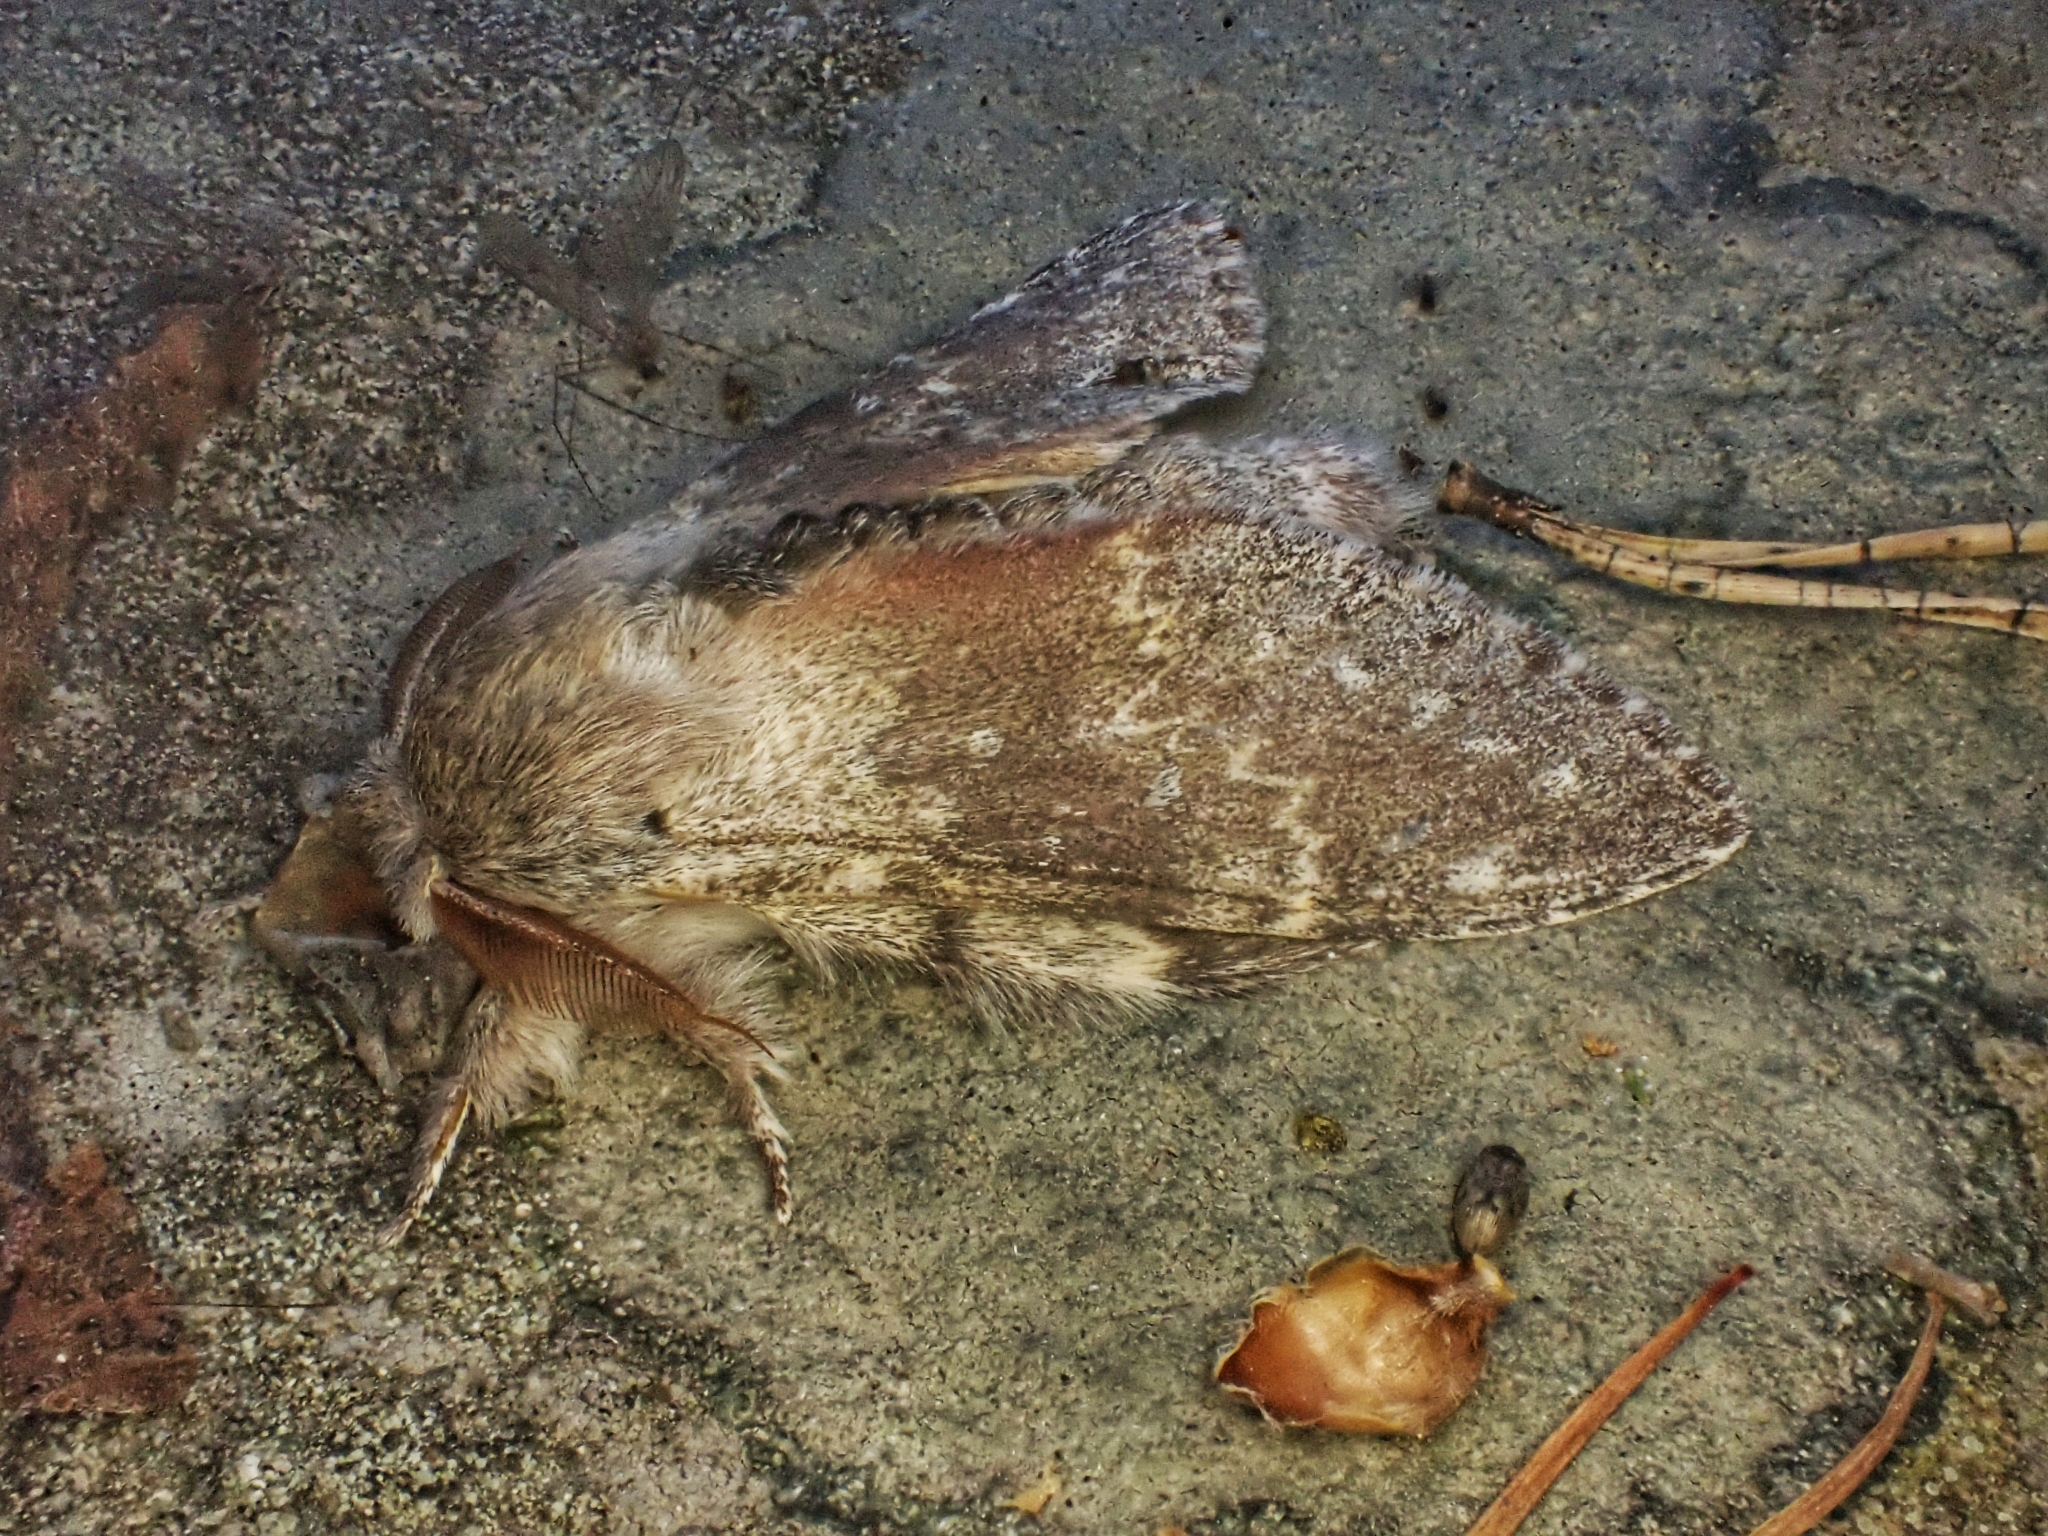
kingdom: Animalia
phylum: Arthropoda
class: Insecta
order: Lepidoptera
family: Notodontidae
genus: Stauropus
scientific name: Stauropus fagi
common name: Lobster moth
